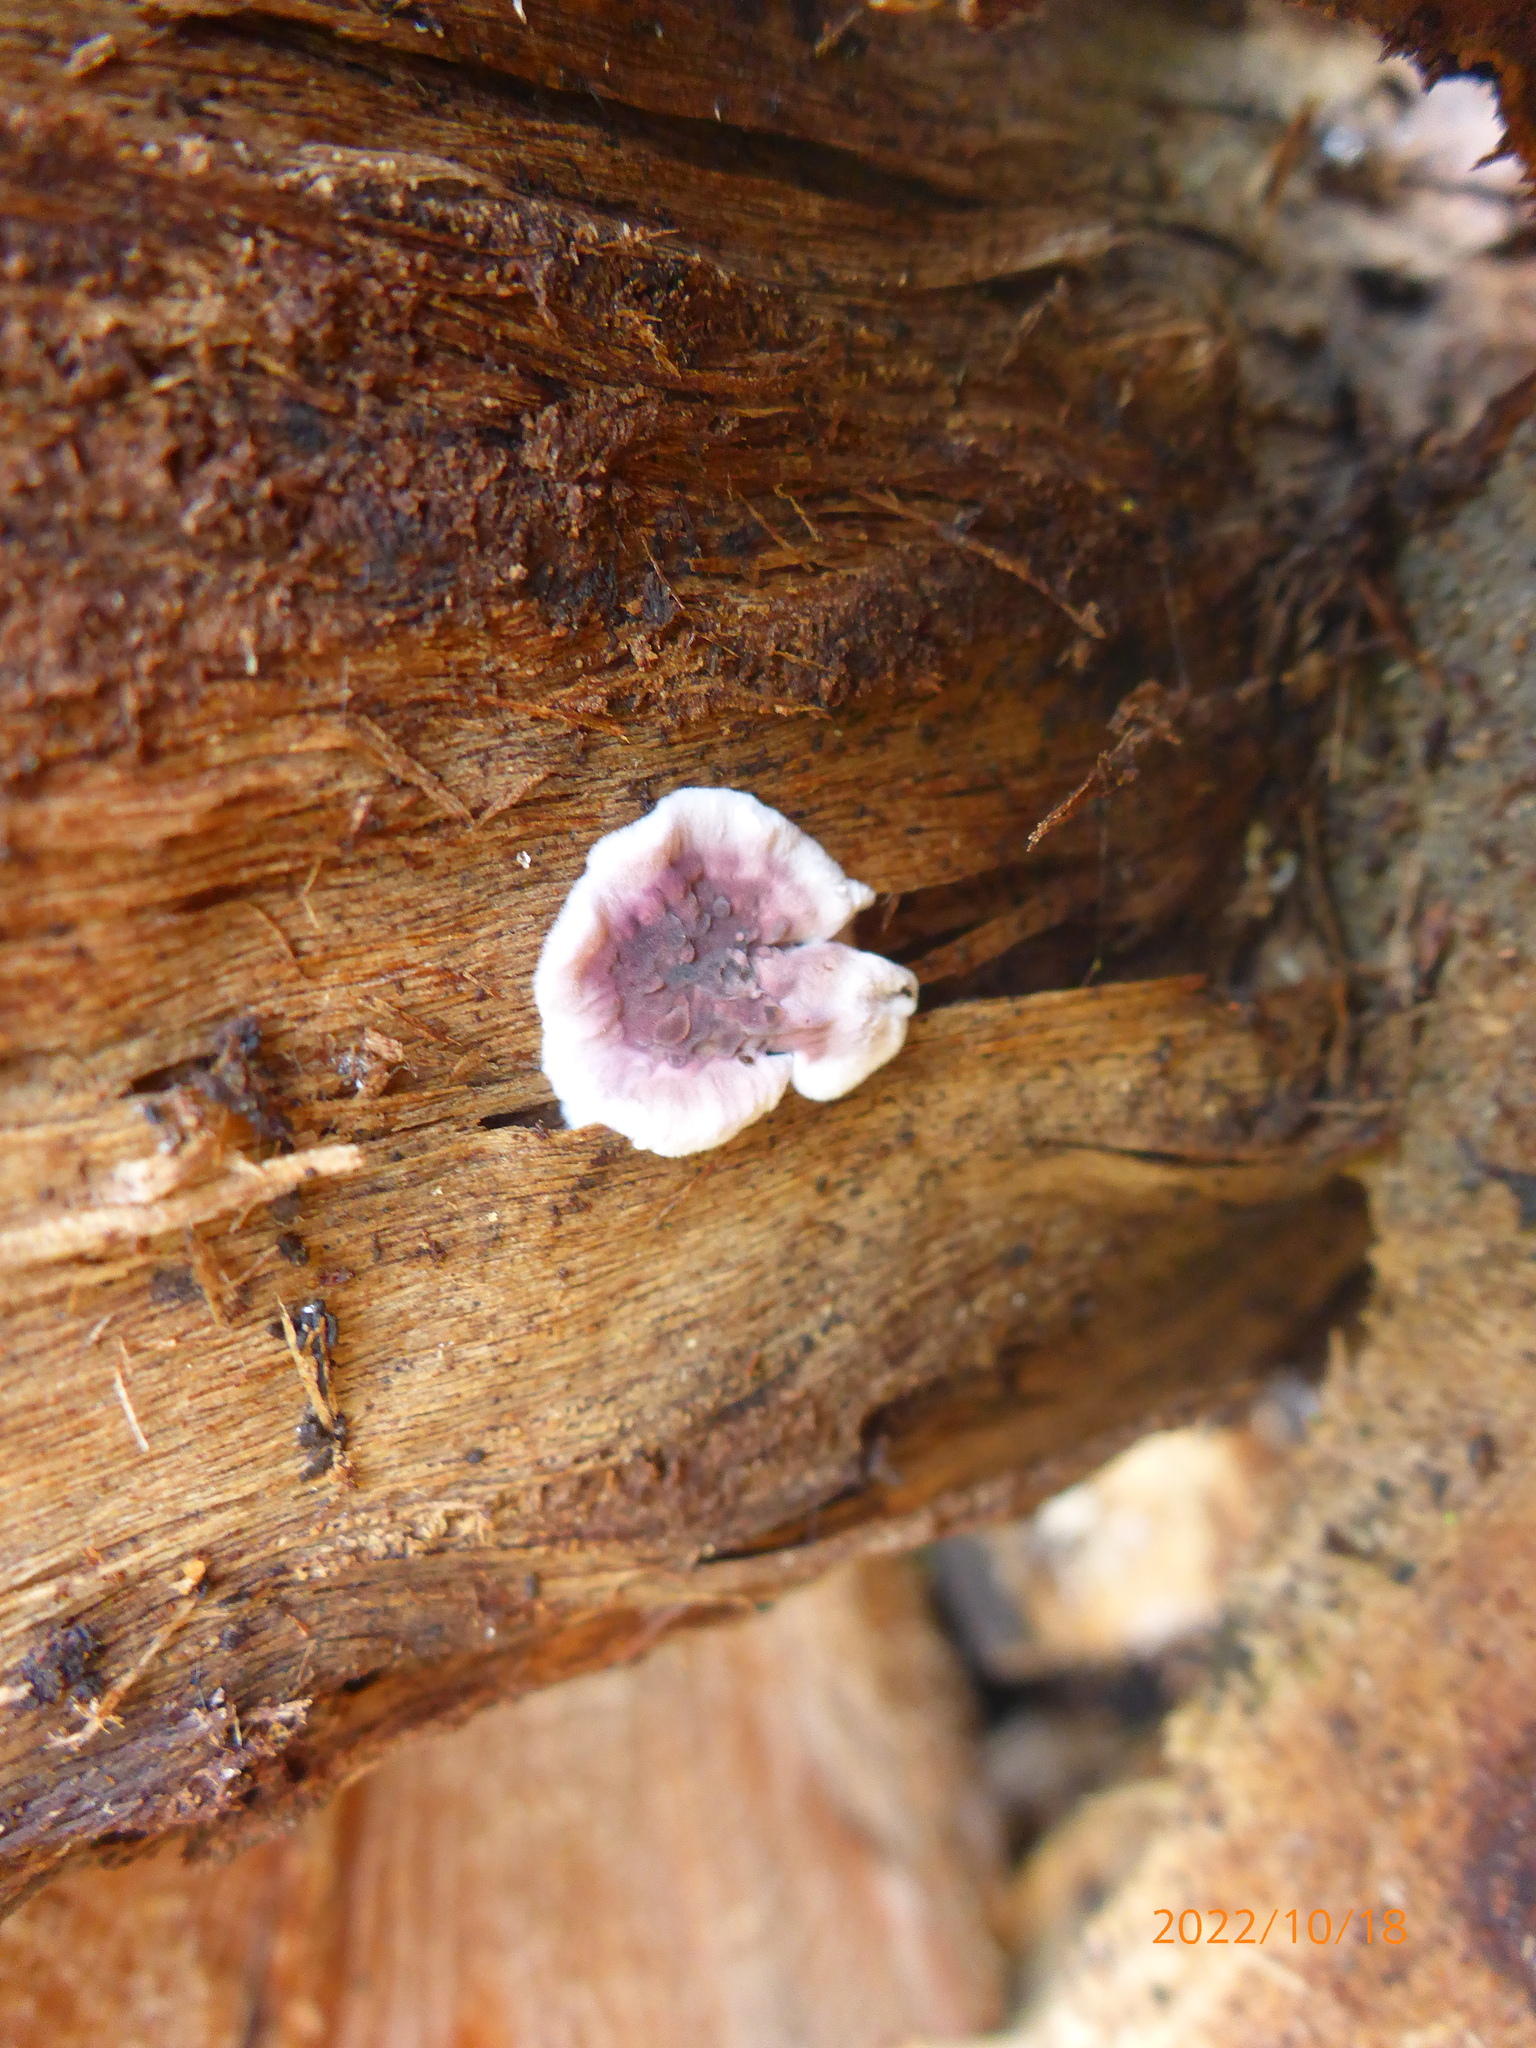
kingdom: Fungi
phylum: Basidiomycota
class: Agaricomycetes
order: Agaricales
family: Cyphellaceae
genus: Chondrostereum
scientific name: Chondrostereum purpureum
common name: Silver leaf disease
